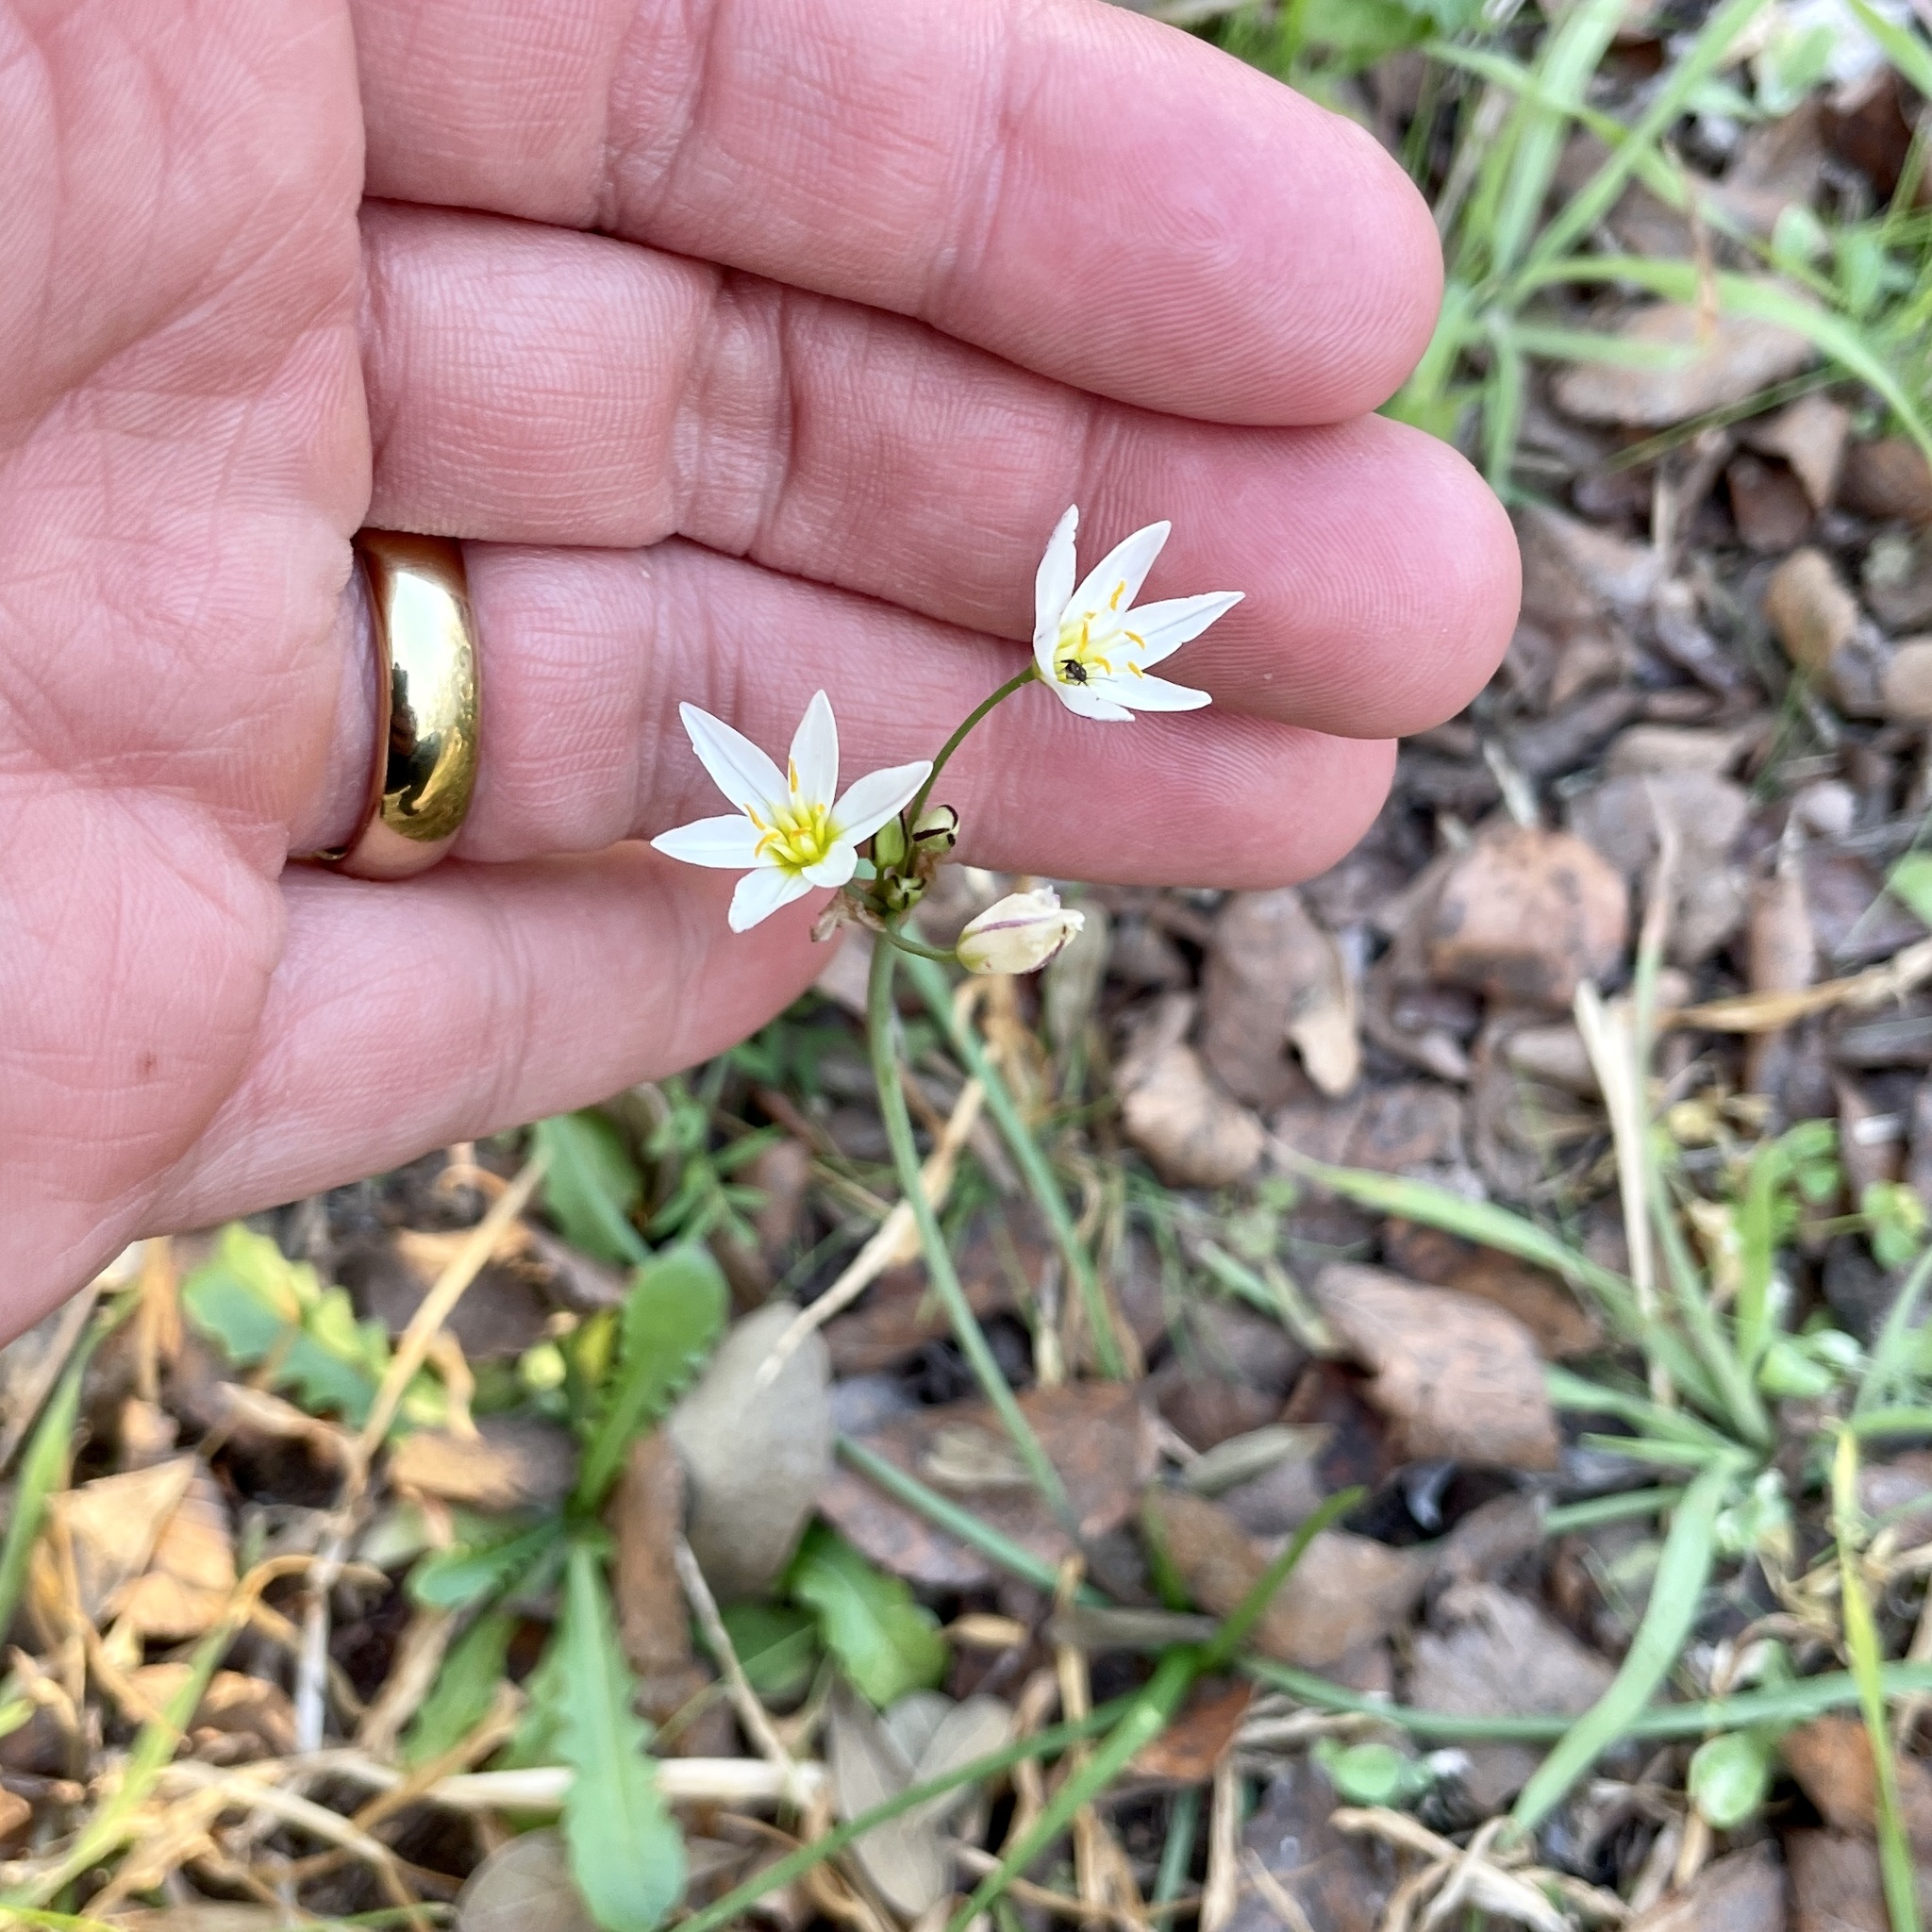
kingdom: Plantae
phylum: Tracheophyta
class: Liliopsida
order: Asparagales
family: Amaryllidaceae
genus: Nothoscordum
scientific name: Nothoscordum bivalve
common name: Crow-poison
